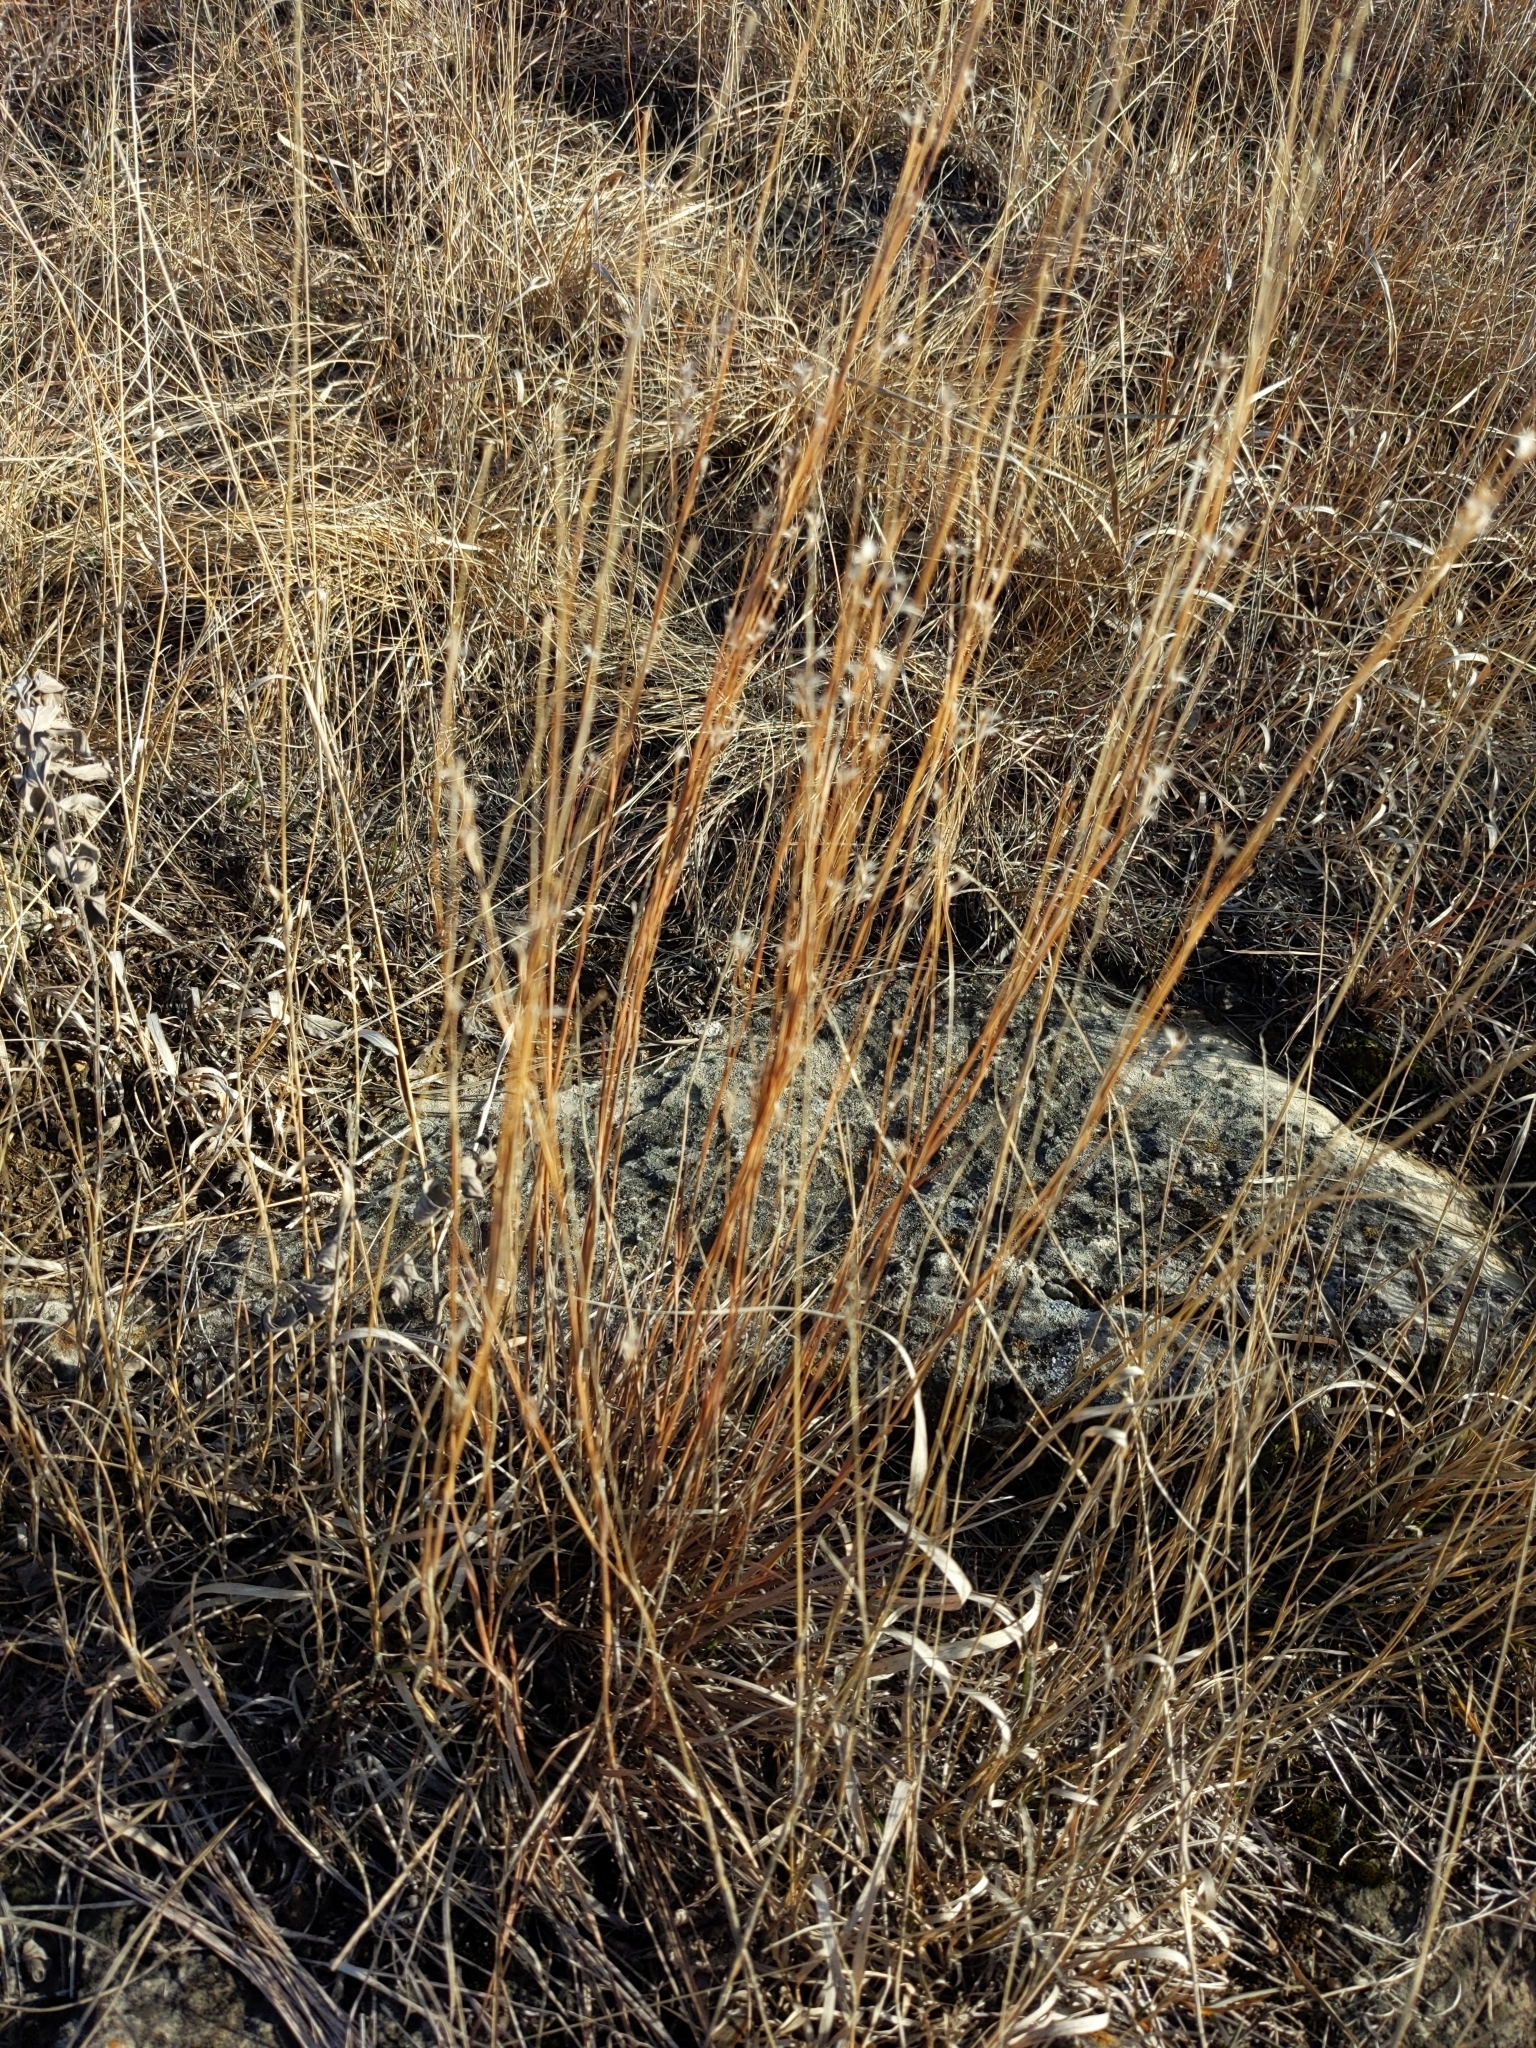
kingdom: Plantae
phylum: Tracheophyta
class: Liliopsida
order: Poales
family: Poaceae
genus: Schizachyrium
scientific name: Schizachyrium scoparium
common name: Little bluestem
